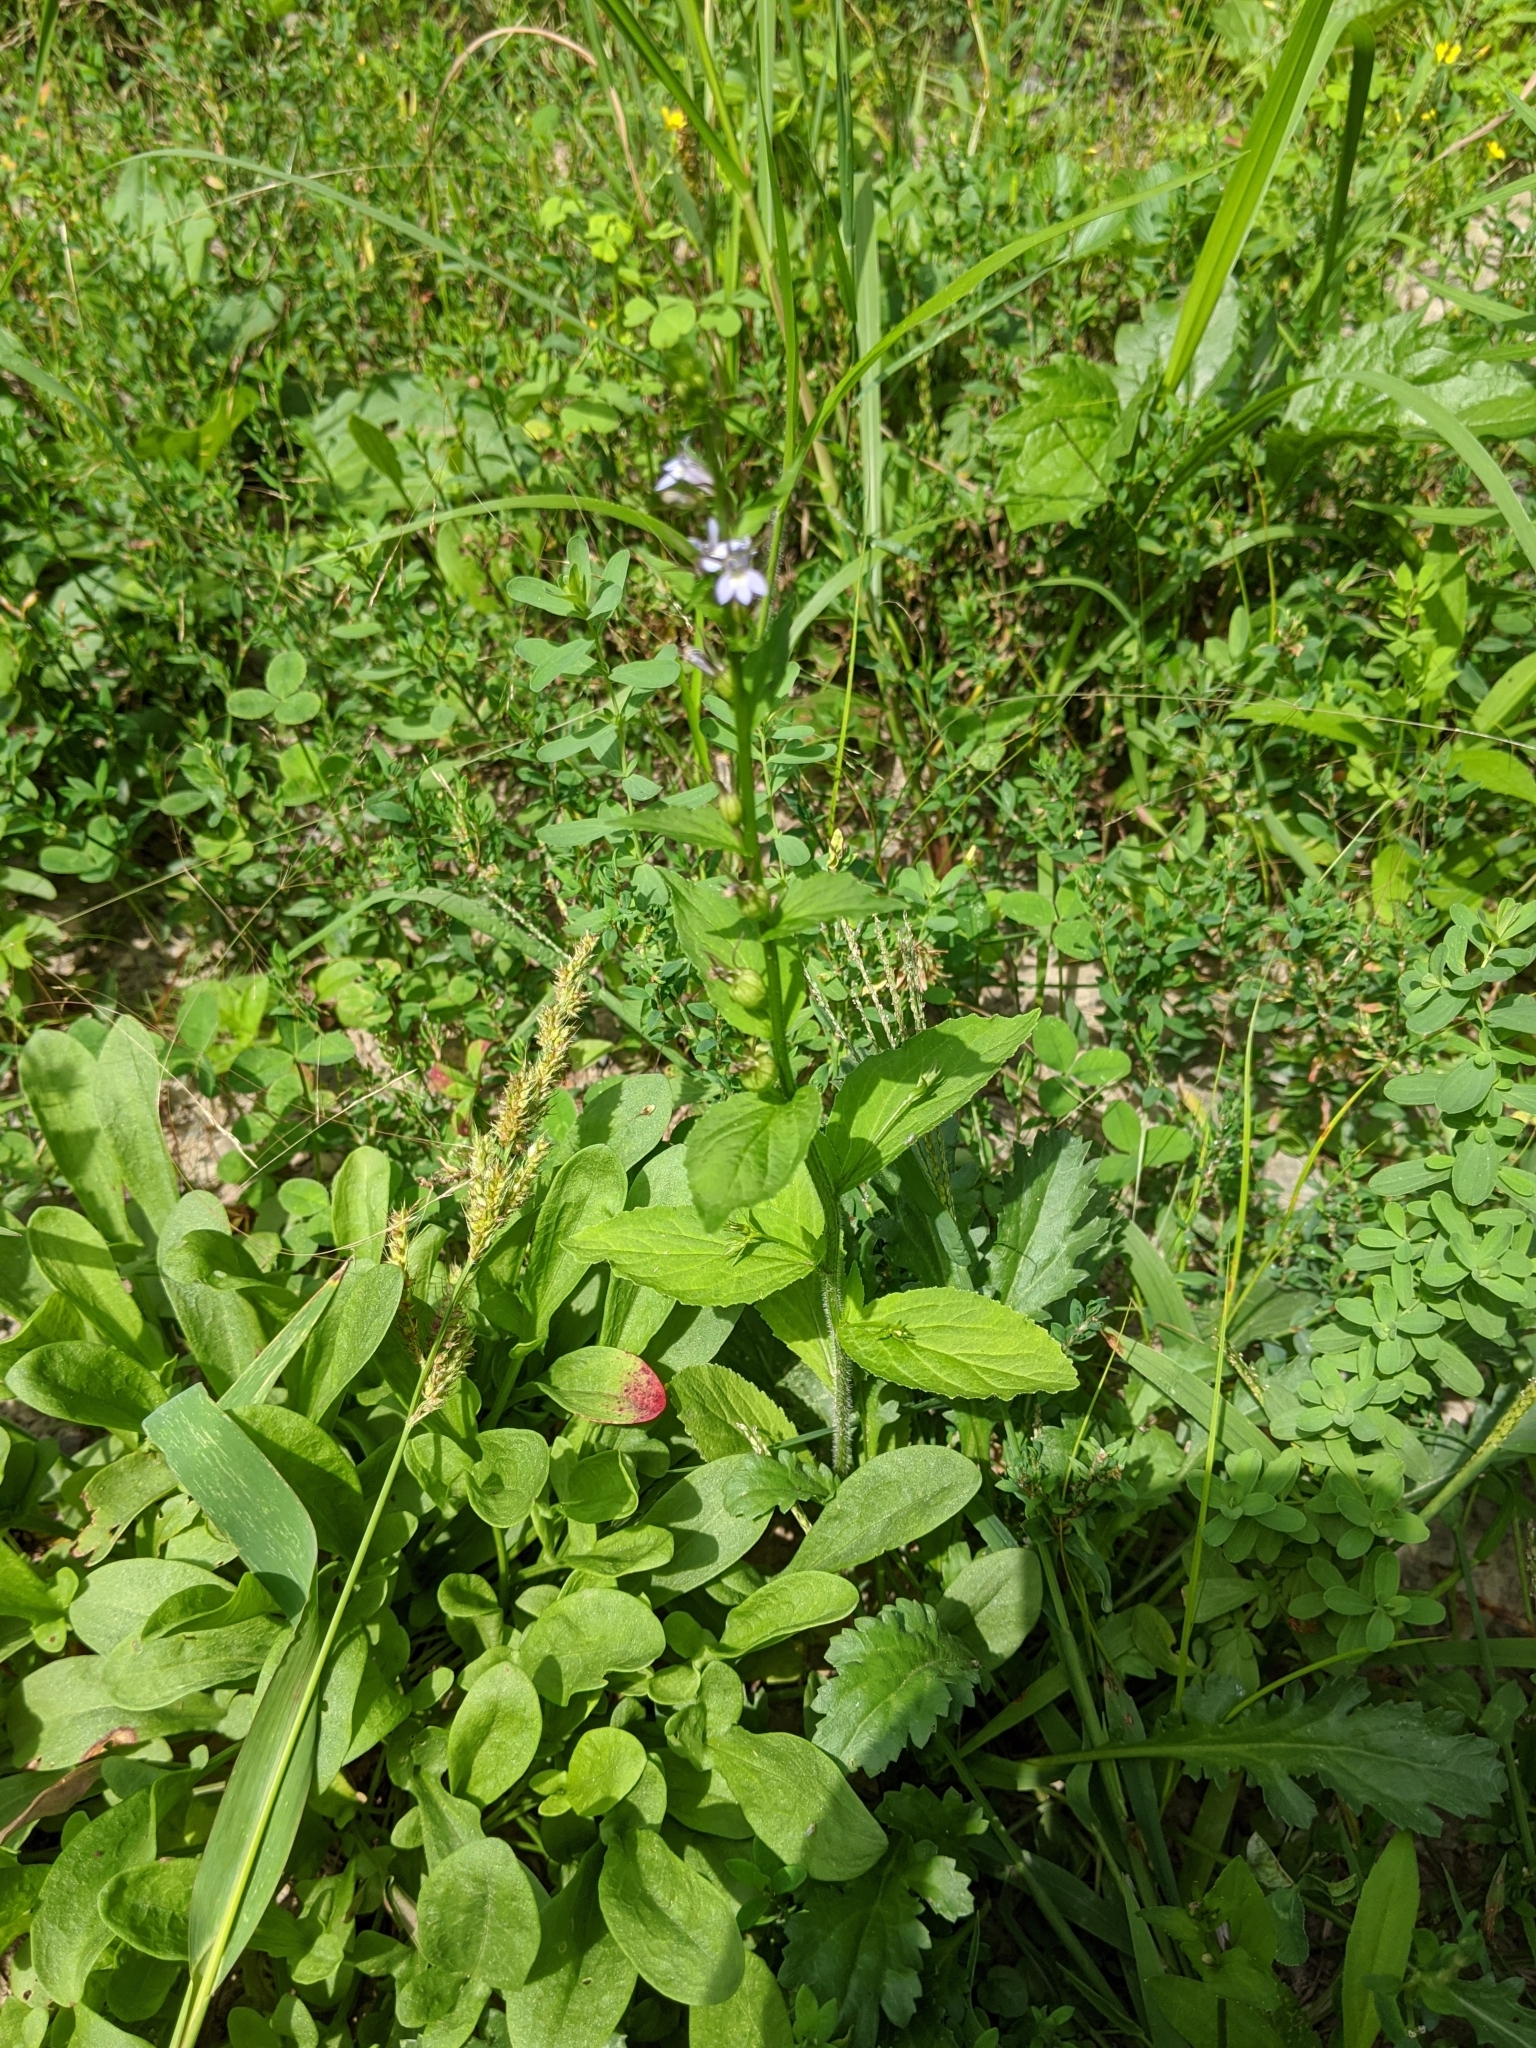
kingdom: Plantae
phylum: Tracheophyta
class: Magnoliopsida
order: Asterales
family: Campanulaceae
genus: Lobelia
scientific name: Lobelia inflata
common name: Indian tobacco
